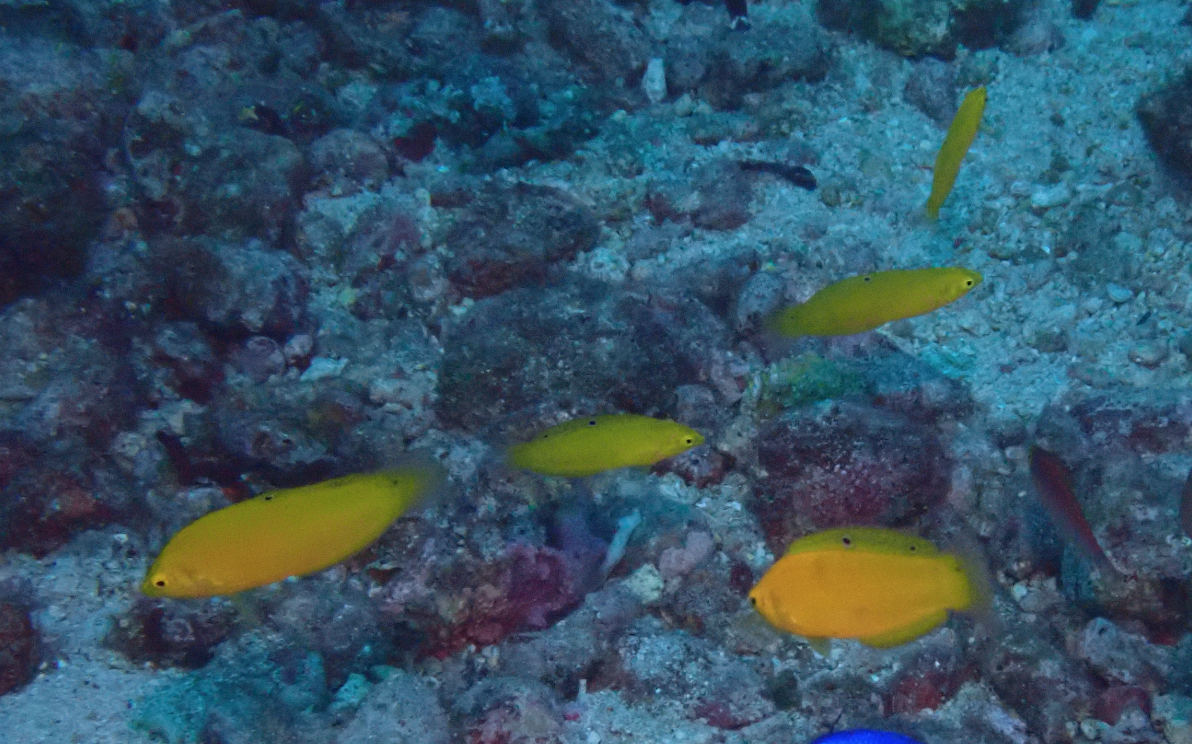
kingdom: Animalia
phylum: Chordata
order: Perciformes
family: Labridae
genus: Halichoeres
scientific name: Halichoeres chrysus
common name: Canary wrasse
